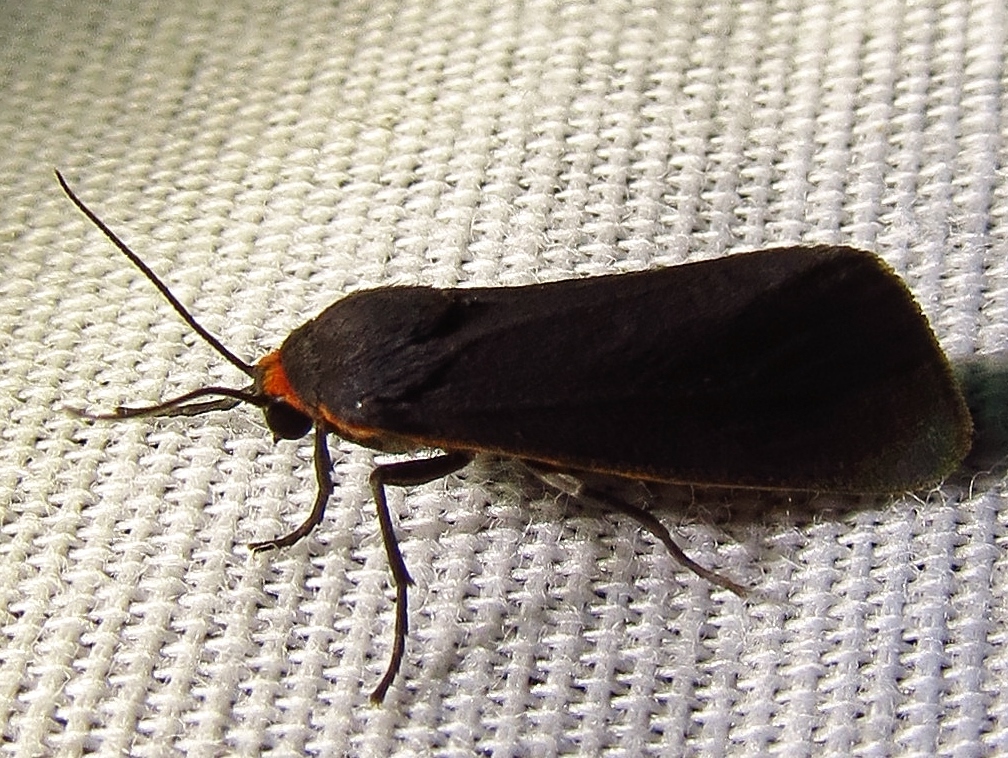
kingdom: Animalia
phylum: Arthropoda
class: Insecta
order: Lepidoptera
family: Erebidae
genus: Virbia
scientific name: Virbia laeta
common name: Joyful holomelina moth
